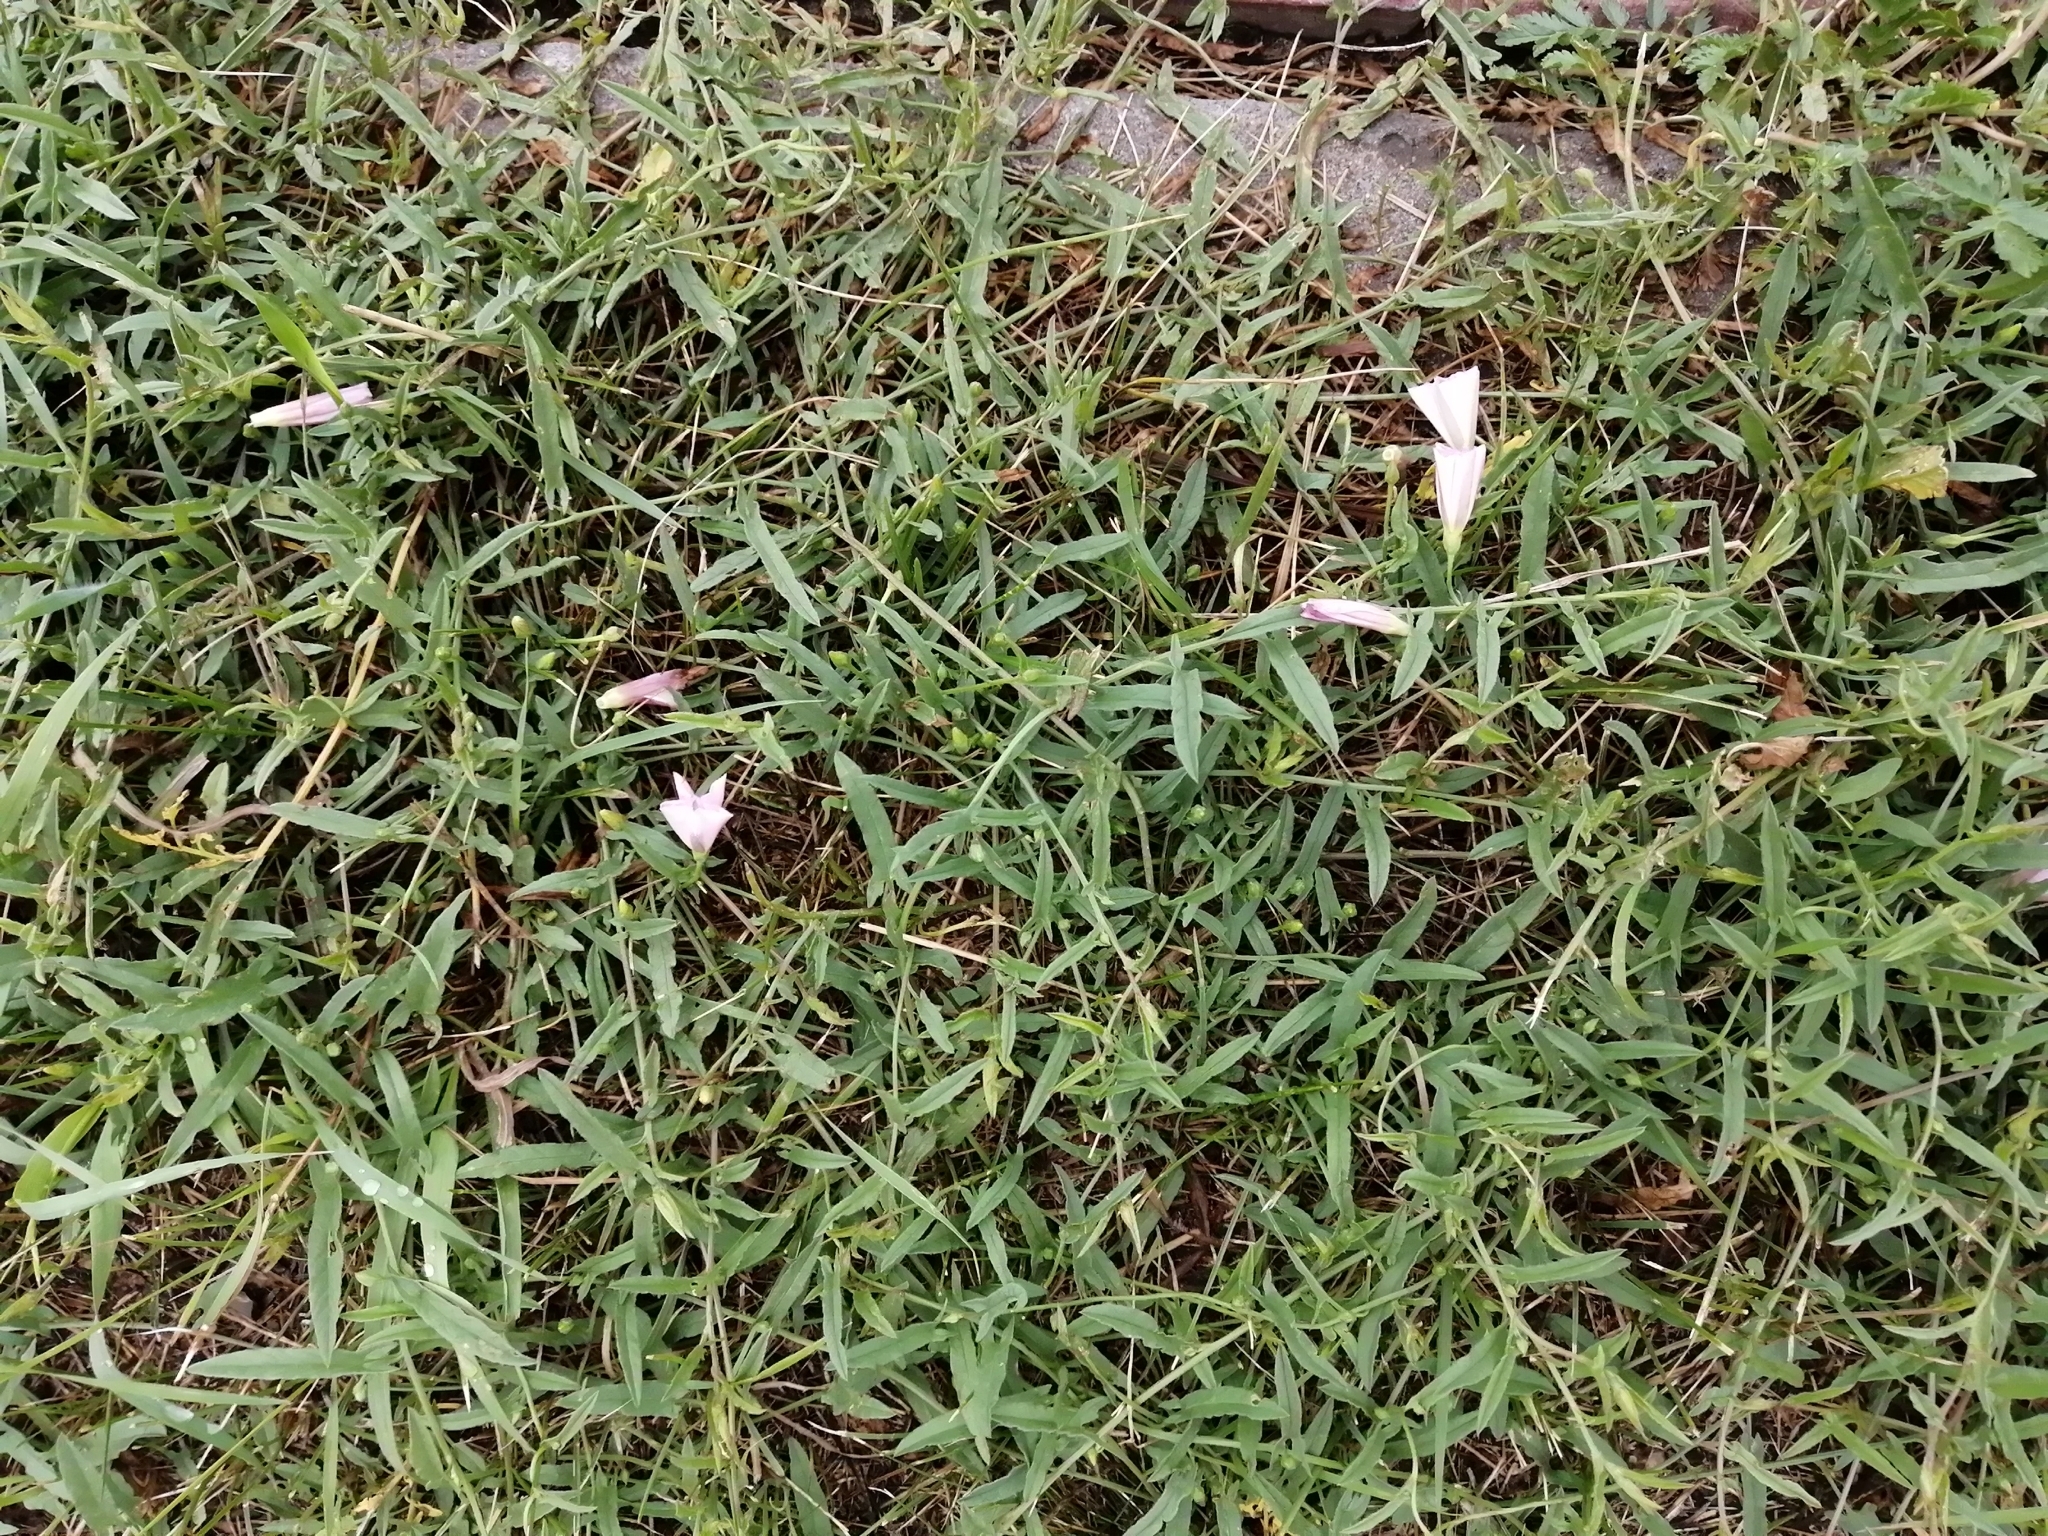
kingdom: Plantae
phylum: Tracheophyta
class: Magnoliopsida
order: Solanales
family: Convolvulaceae
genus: Convolvulus
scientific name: Convolvulus arvensis
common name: Field bindweed
